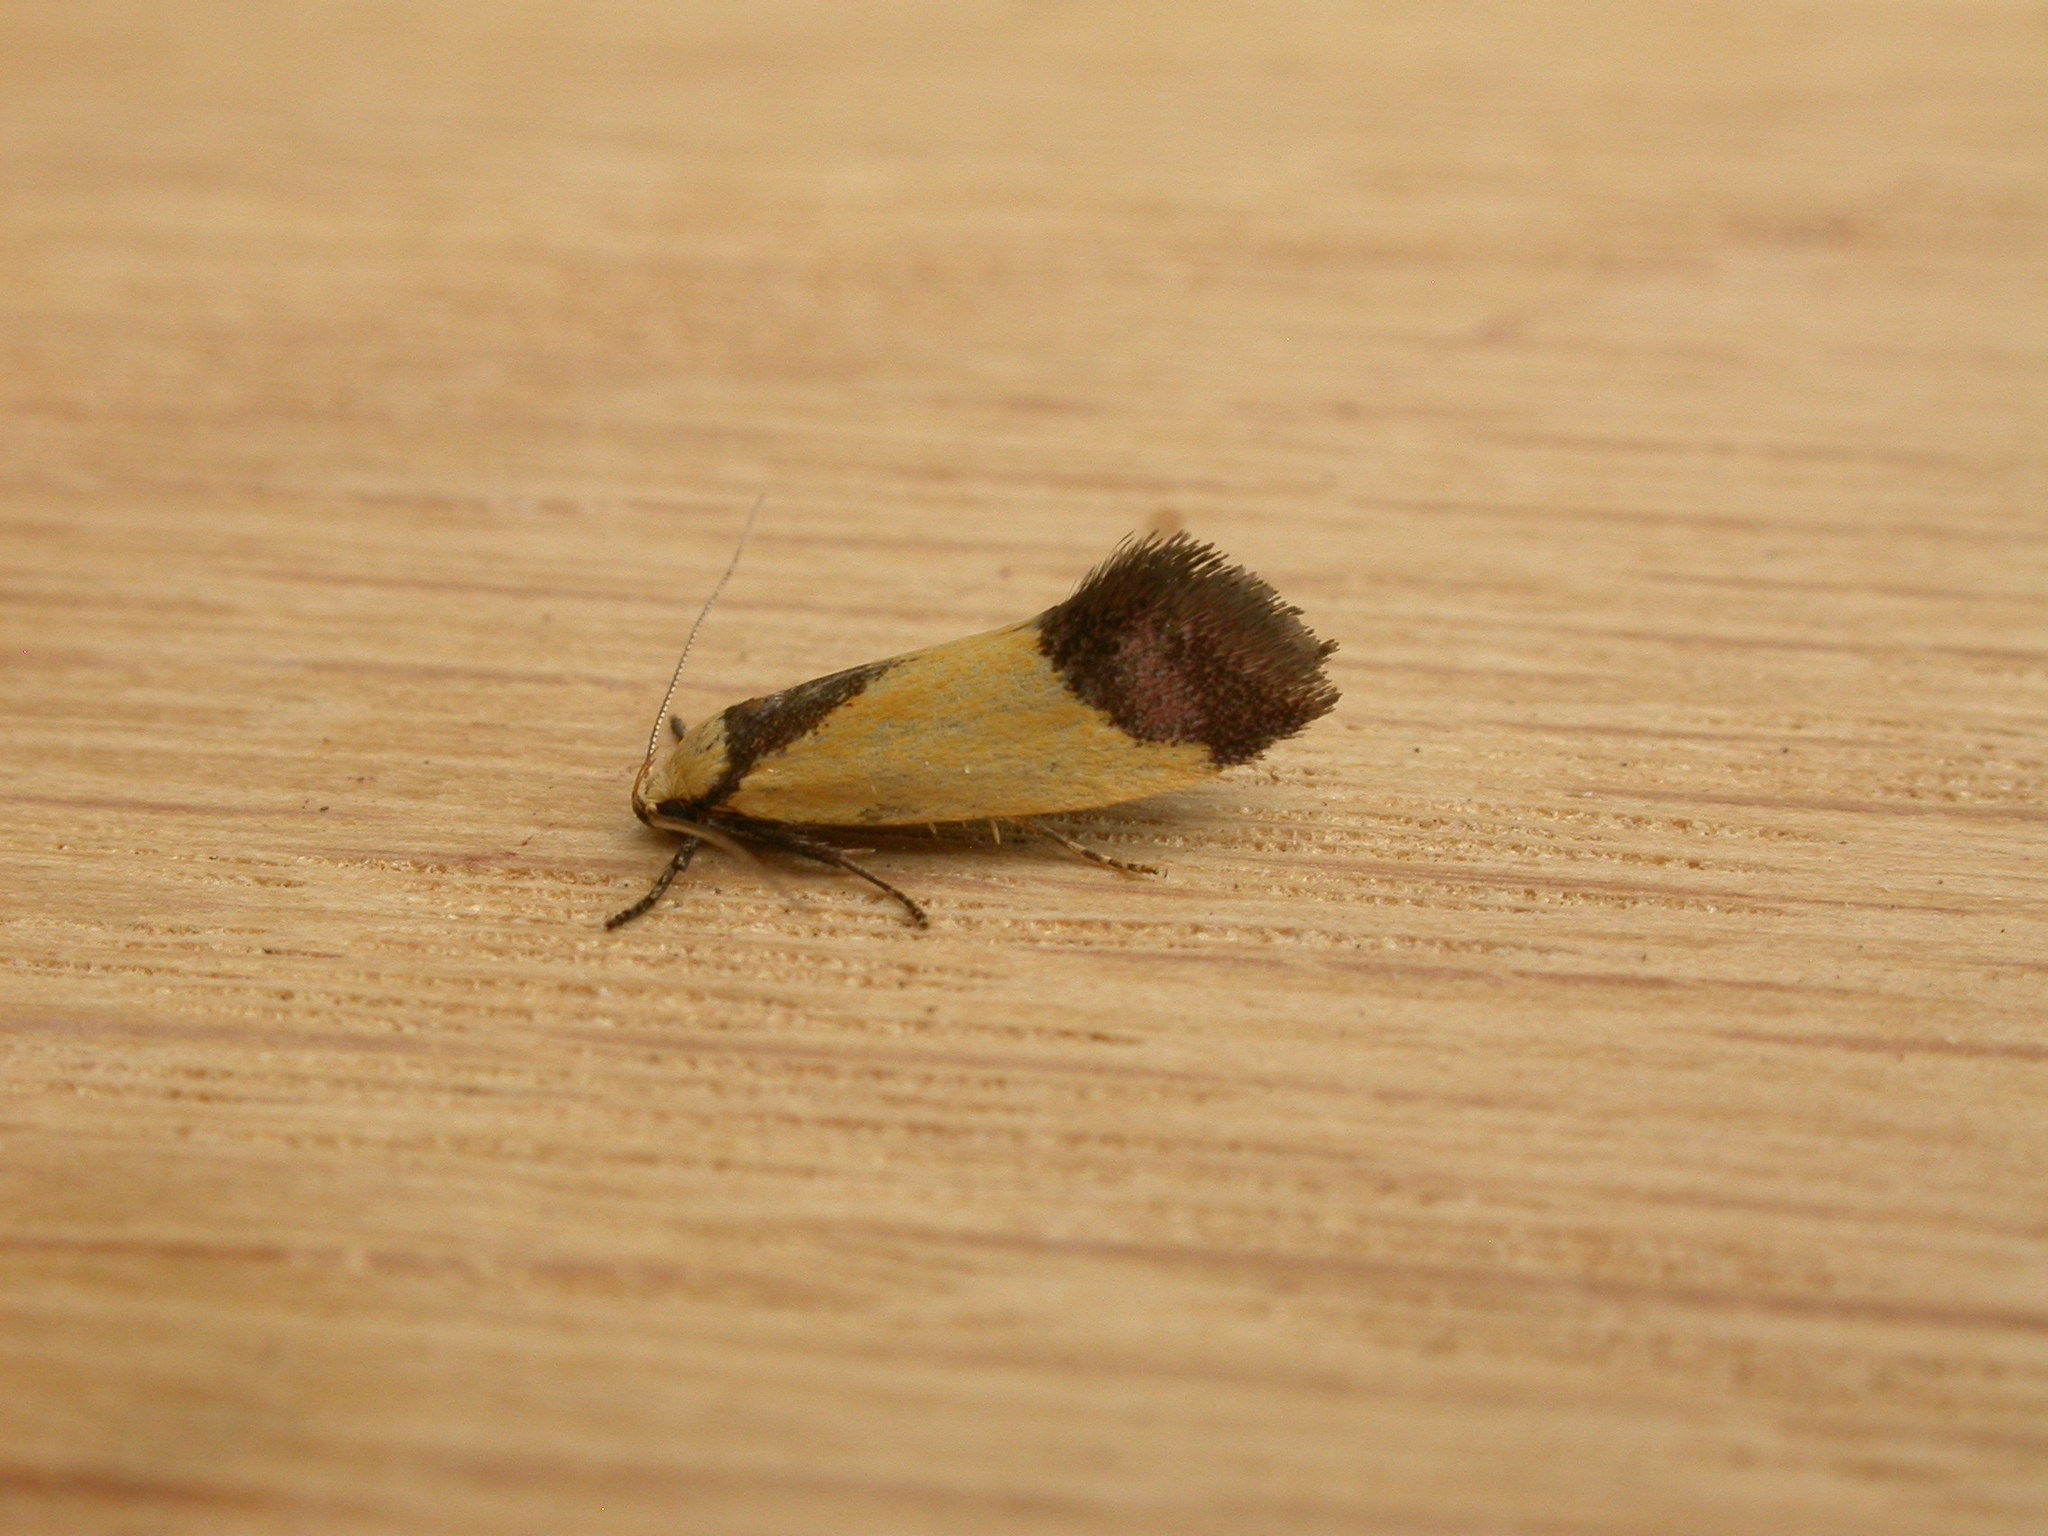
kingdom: Animalia
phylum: Arthropoda
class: Insecta
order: Lepidoptera
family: Oecophoridae
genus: Crepidosceles
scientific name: Crepidosceles exanthema
